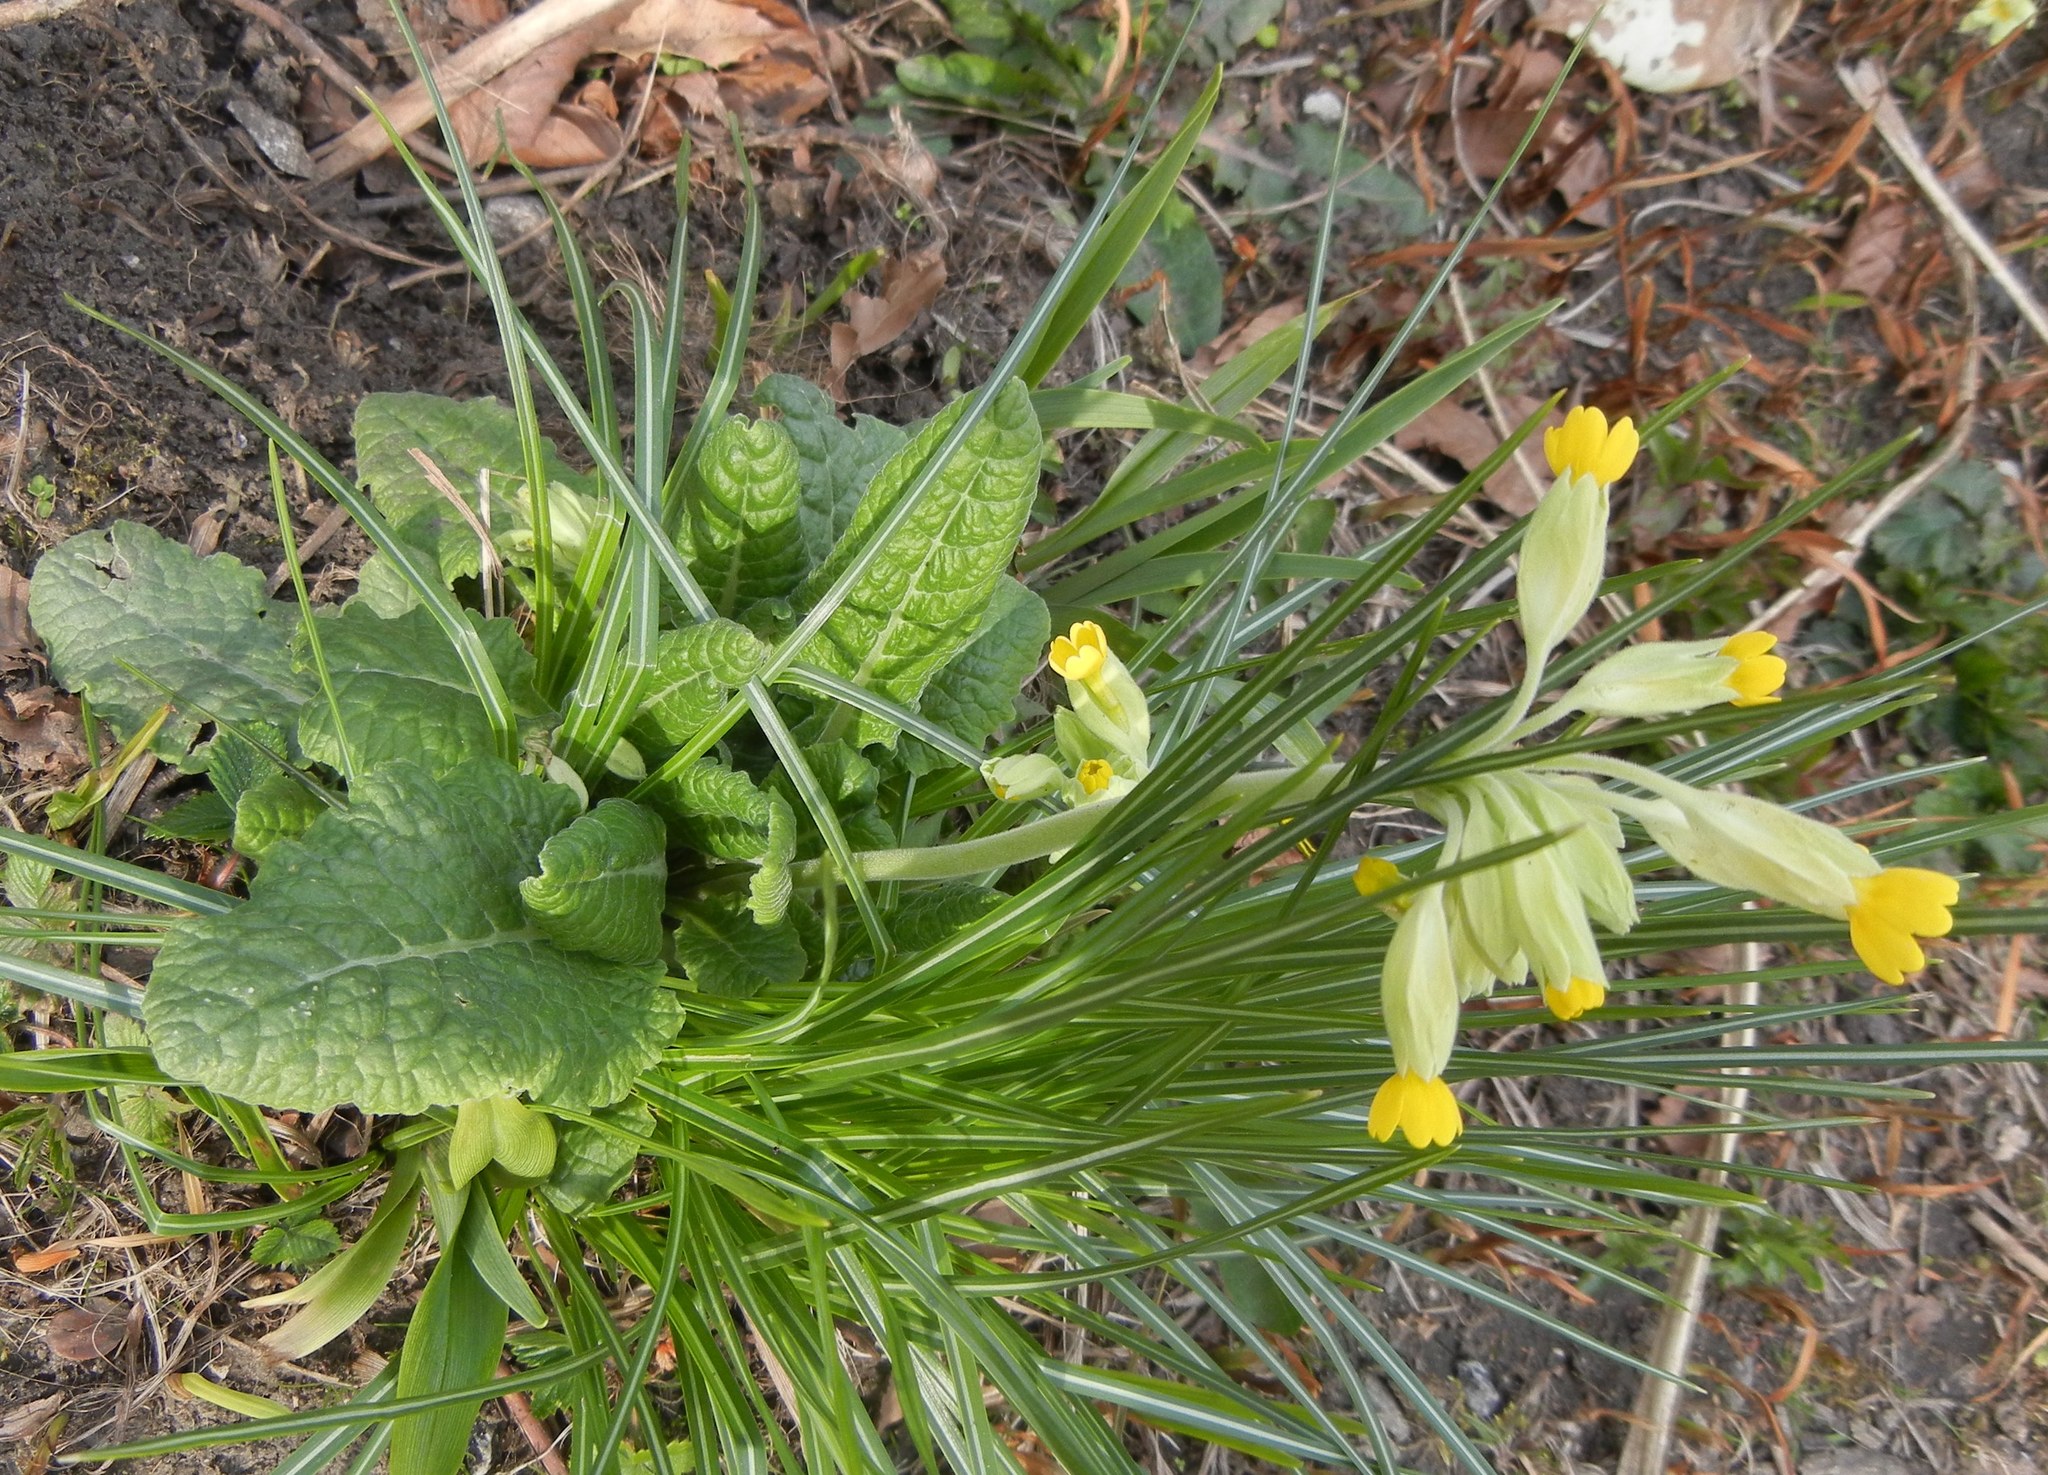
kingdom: Plantae
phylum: Tracheophyta
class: Magnoliopsida
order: Ericales
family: Primulaceae
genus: Primula
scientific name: Primula veris
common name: Cowslip
